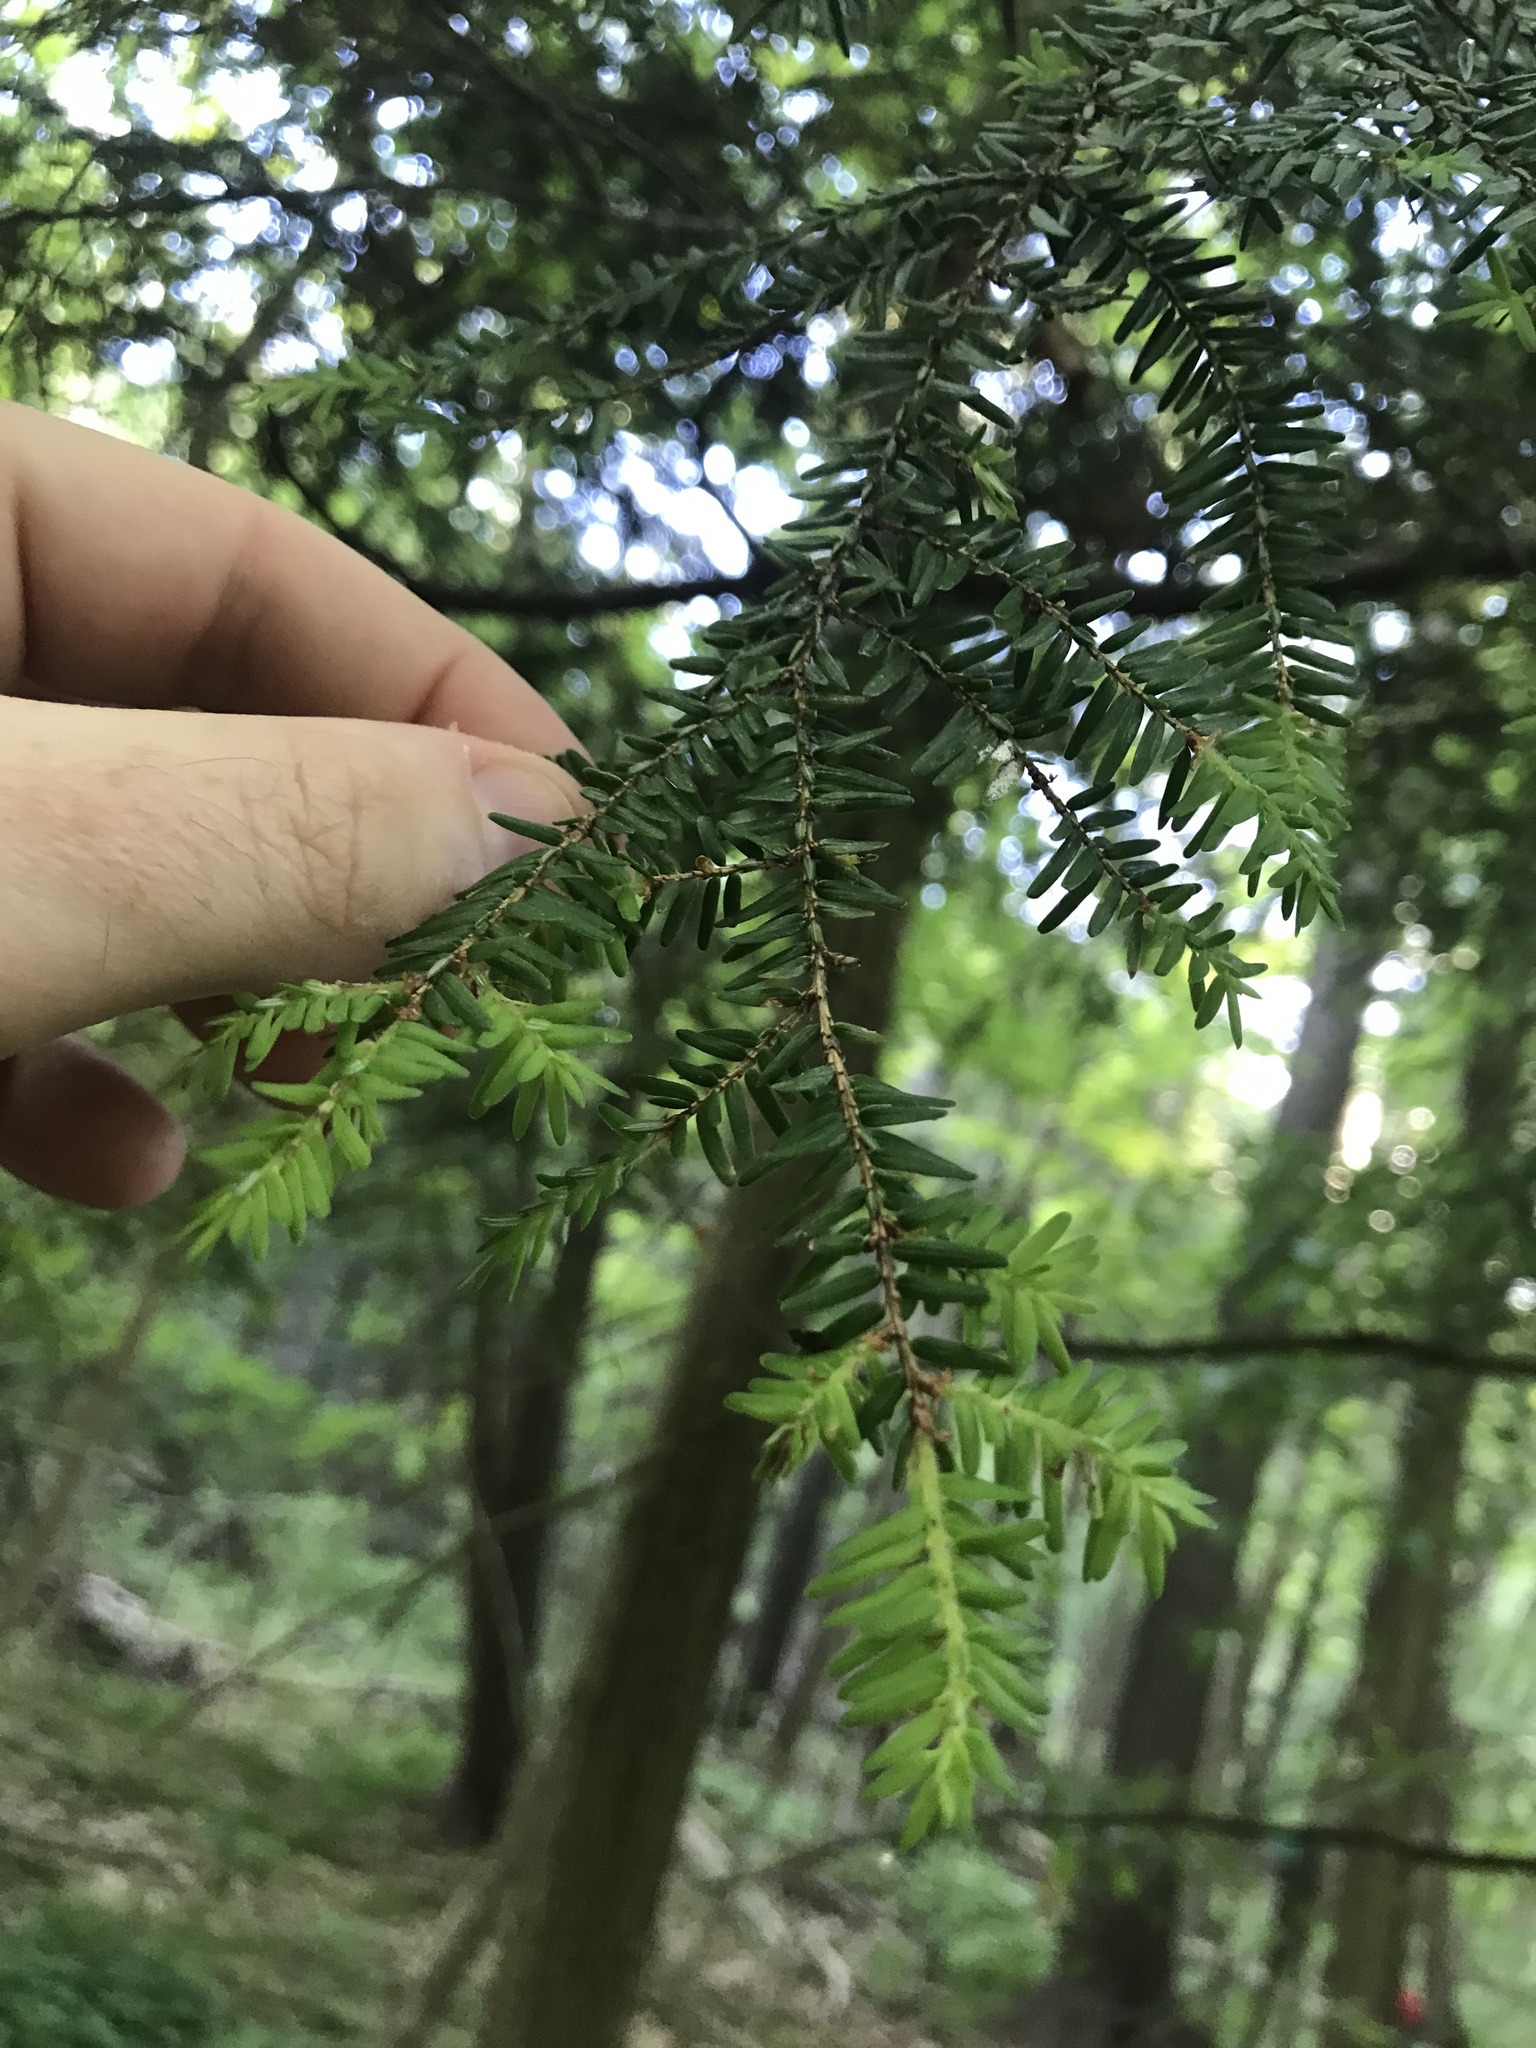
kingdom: Plantae
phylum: Tracheophyta
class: Pinopsida
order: Pinales
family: Pinaceae
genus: Tsuga
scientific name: Tsuga canadensis
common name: Eastern hemlock
